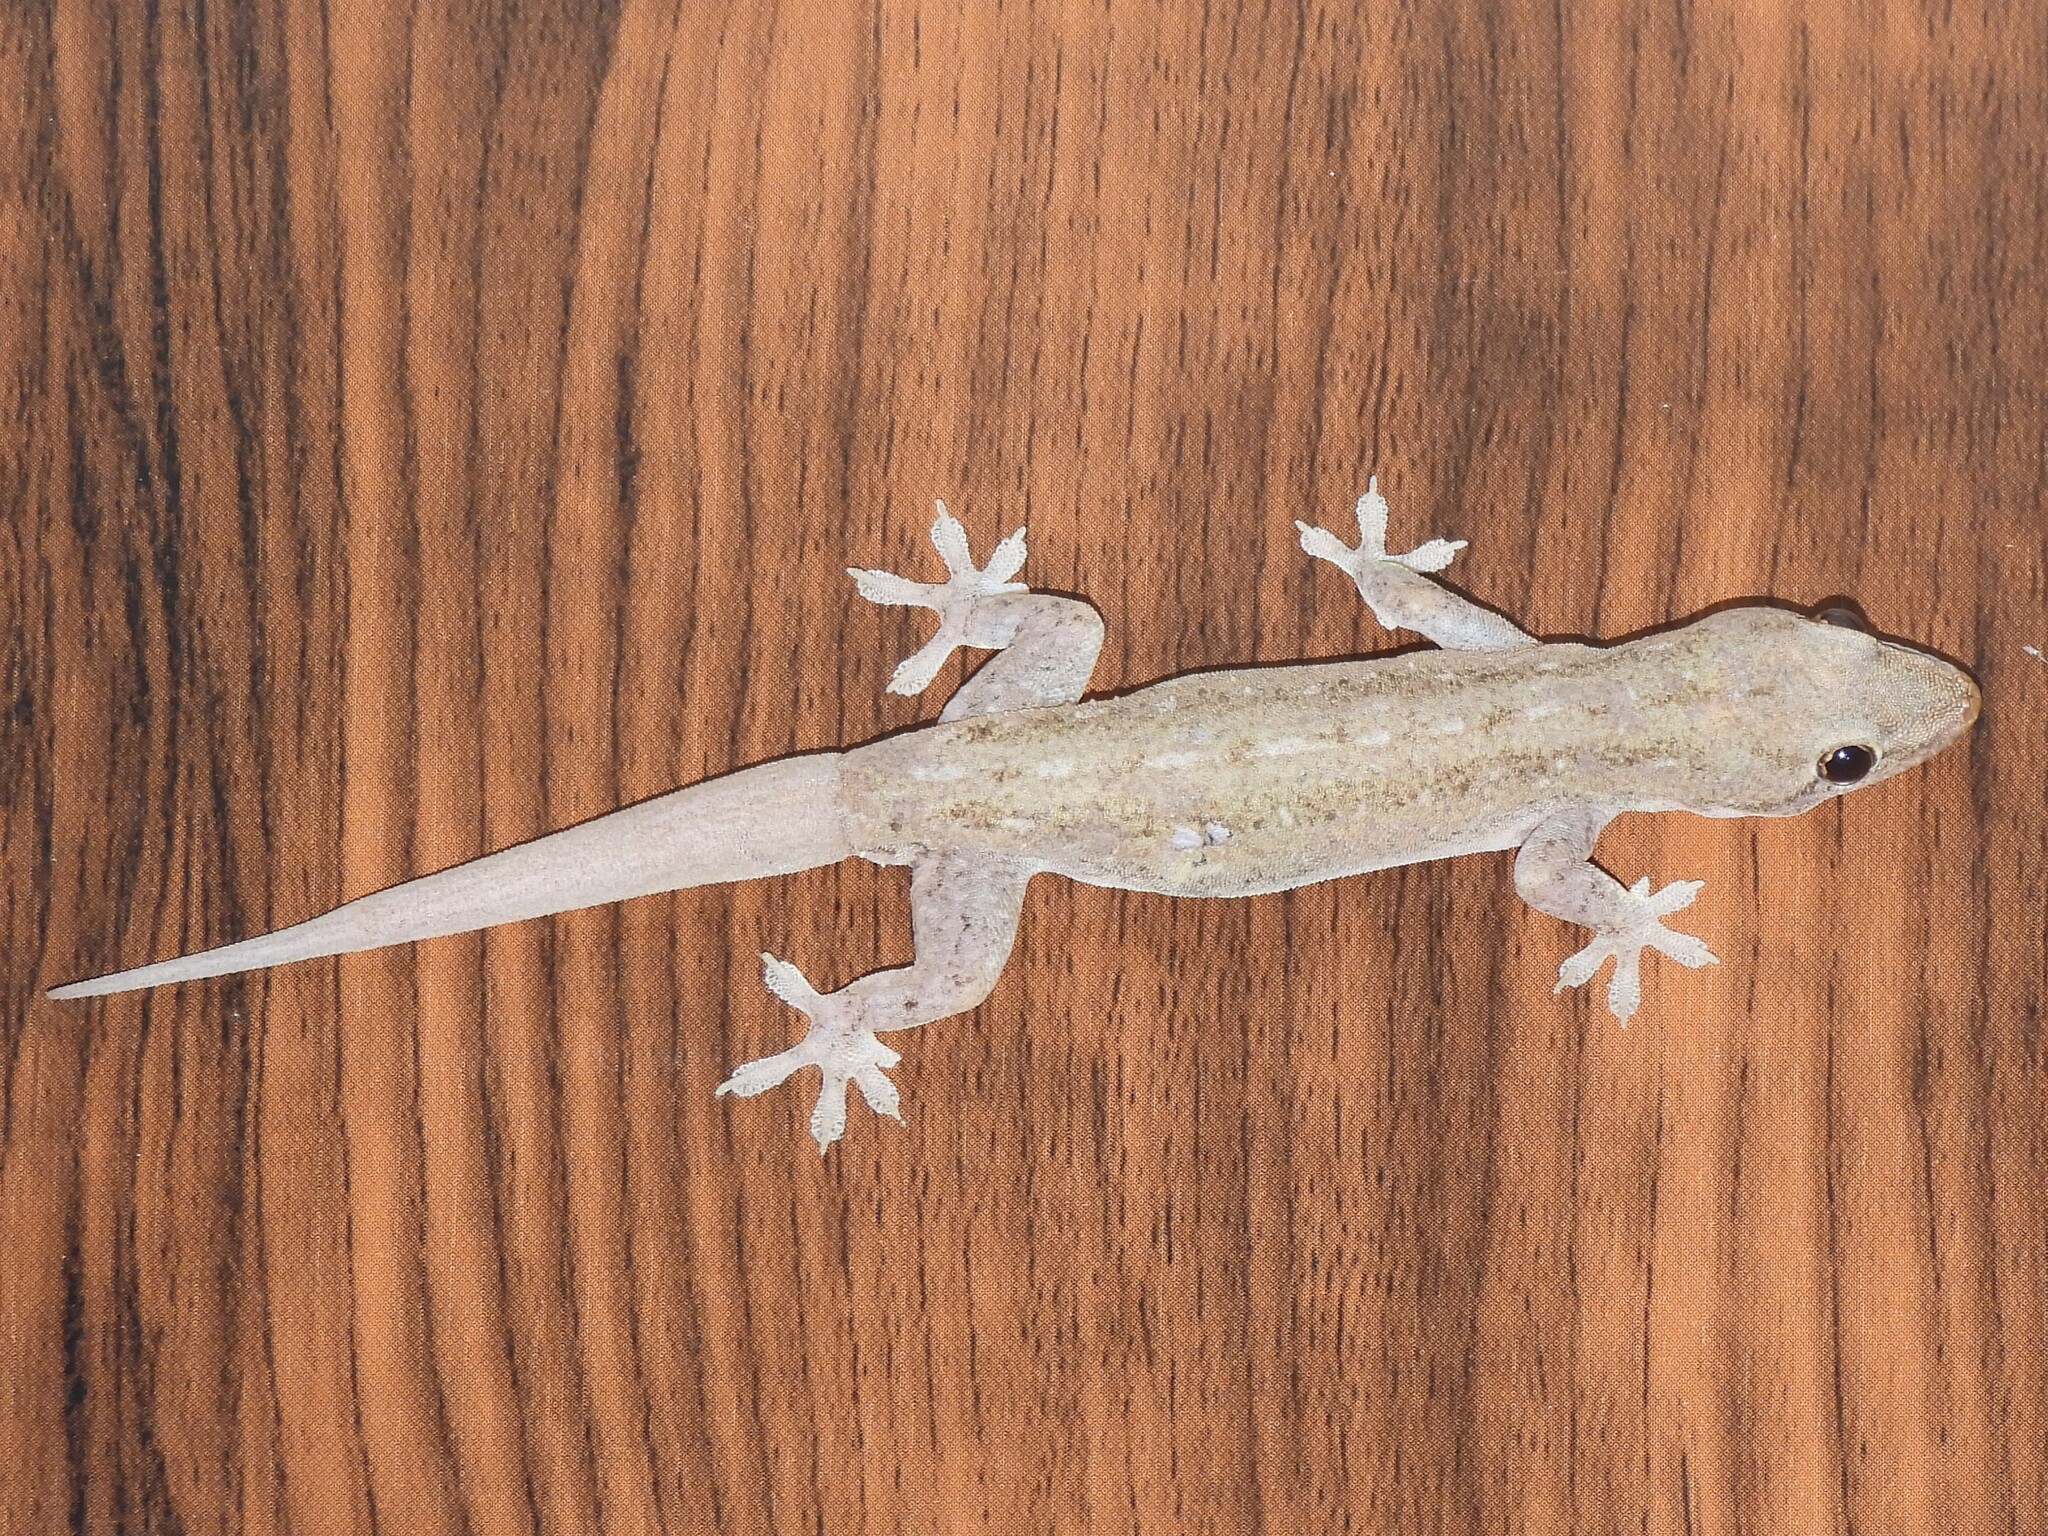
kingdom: Animalia
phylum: Chordata
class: Squamata
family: Gekkonidae
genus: Hemidactylus
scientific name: Hemidactylus frenatus
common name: Common house gecko
